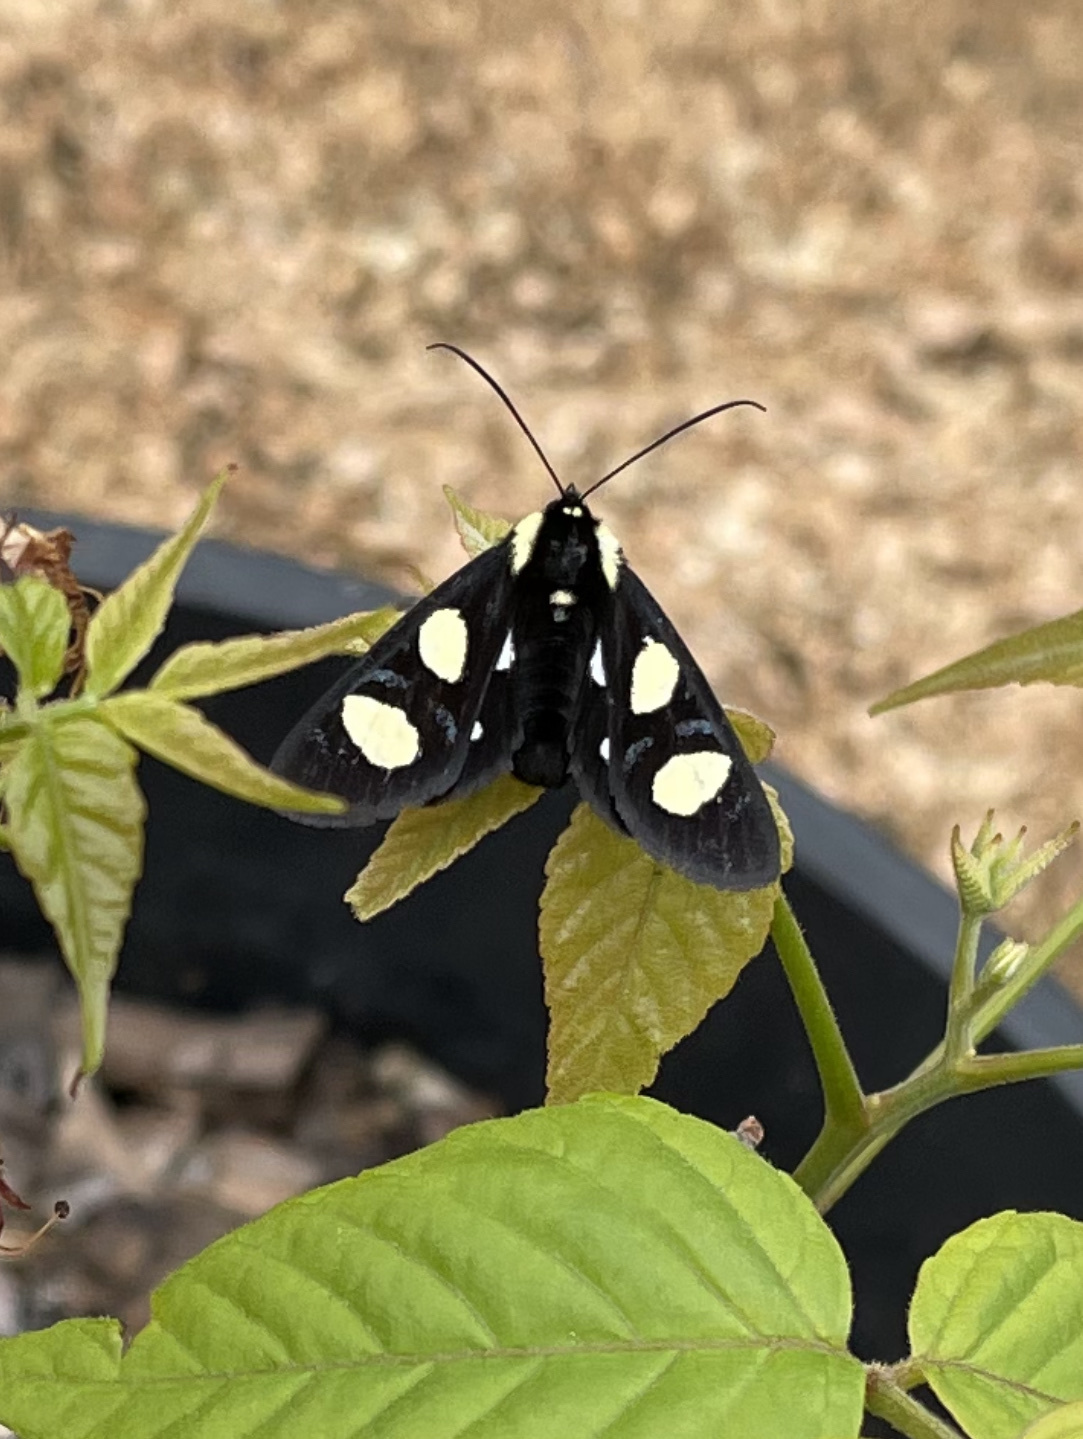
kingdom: Animalia
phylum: Arthropoda
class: Insecta
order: Lepidoptera
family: Noctuidae
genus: Alypia
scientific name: Alypia octomaculata
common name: Eight-spotted forester
